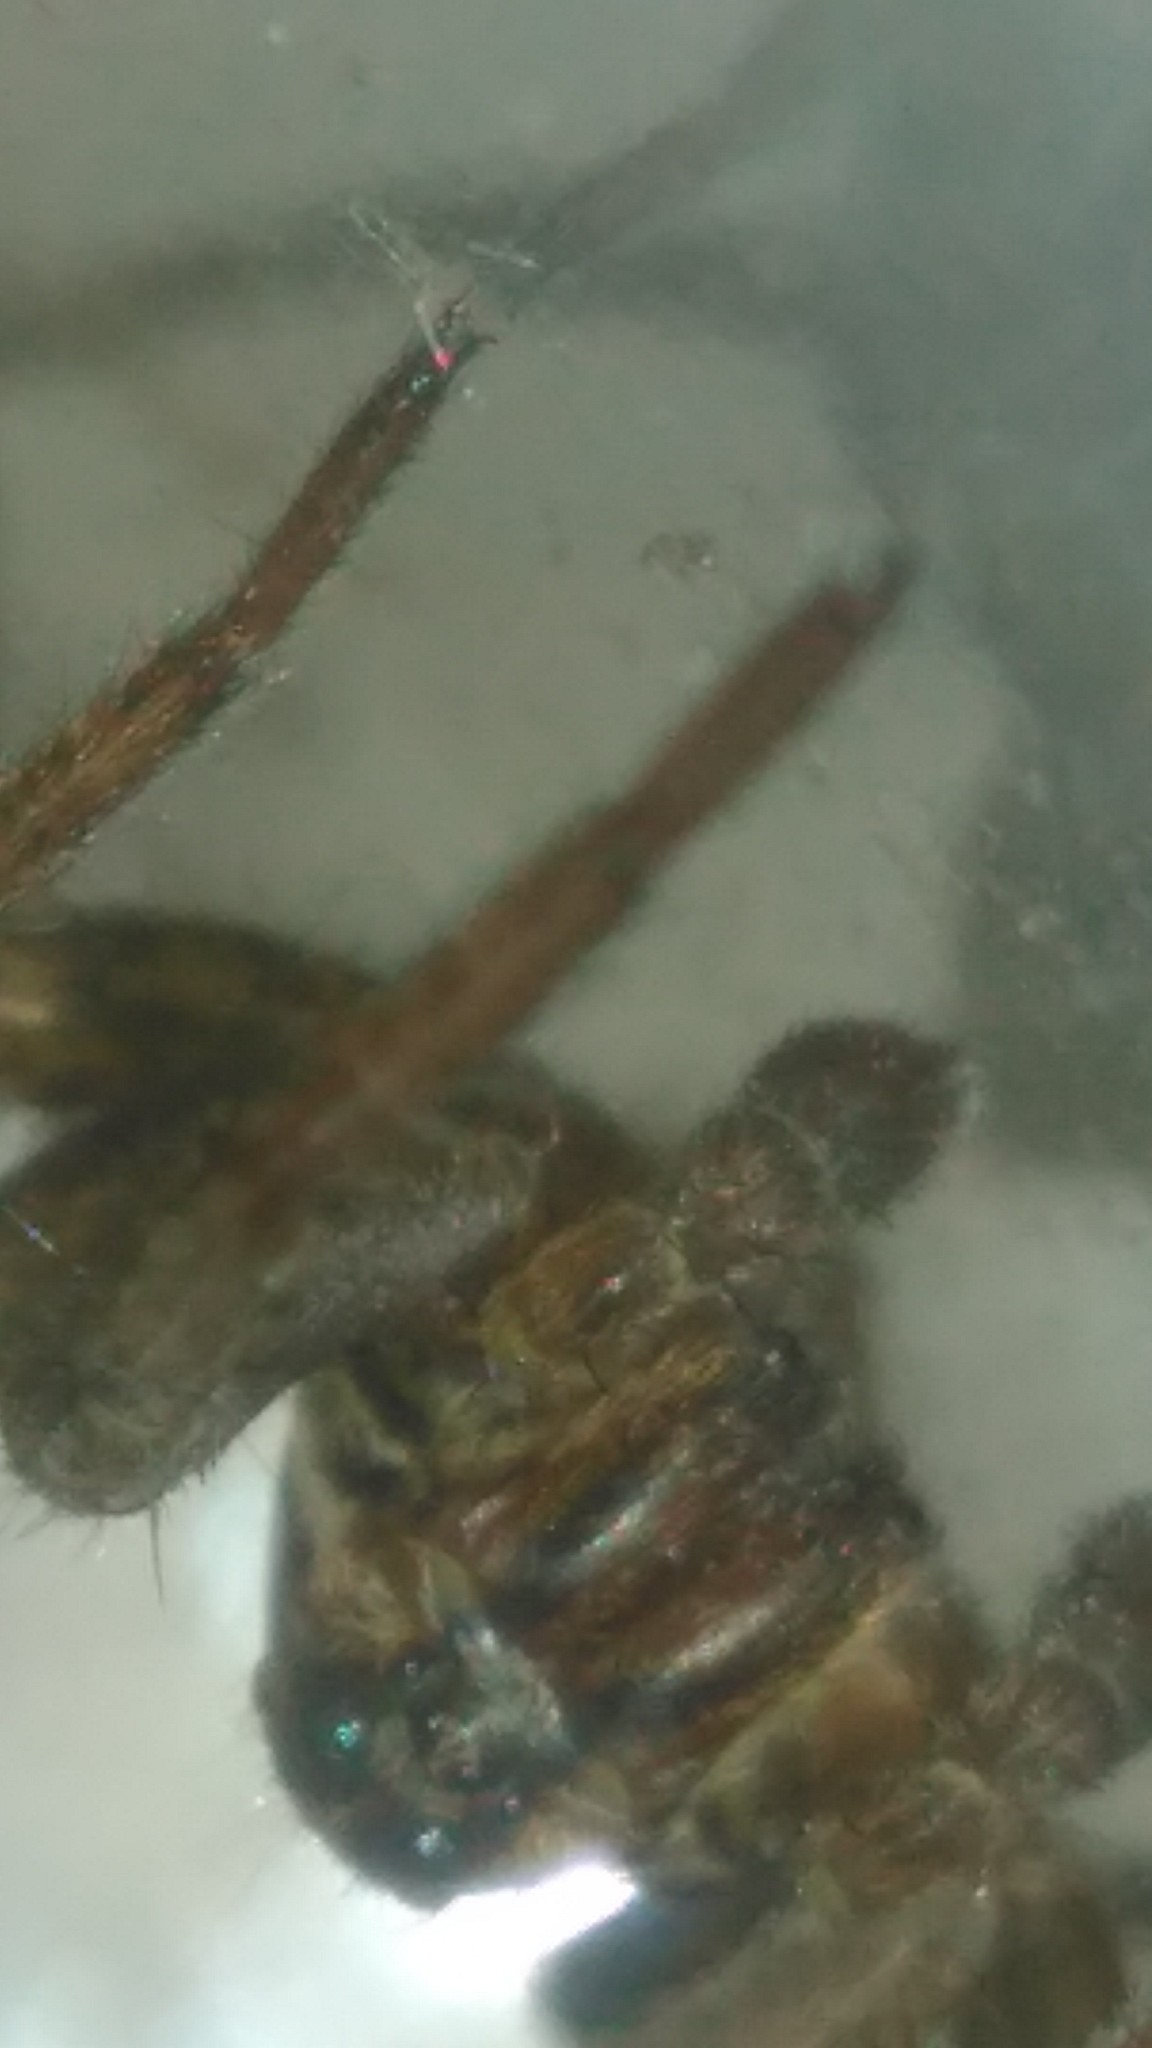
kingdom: Animalia
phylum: Arthropoda
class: Arachnida
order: Araneae
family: Lycosidae
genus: Alopecosa
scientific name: Alopecosa moesta
